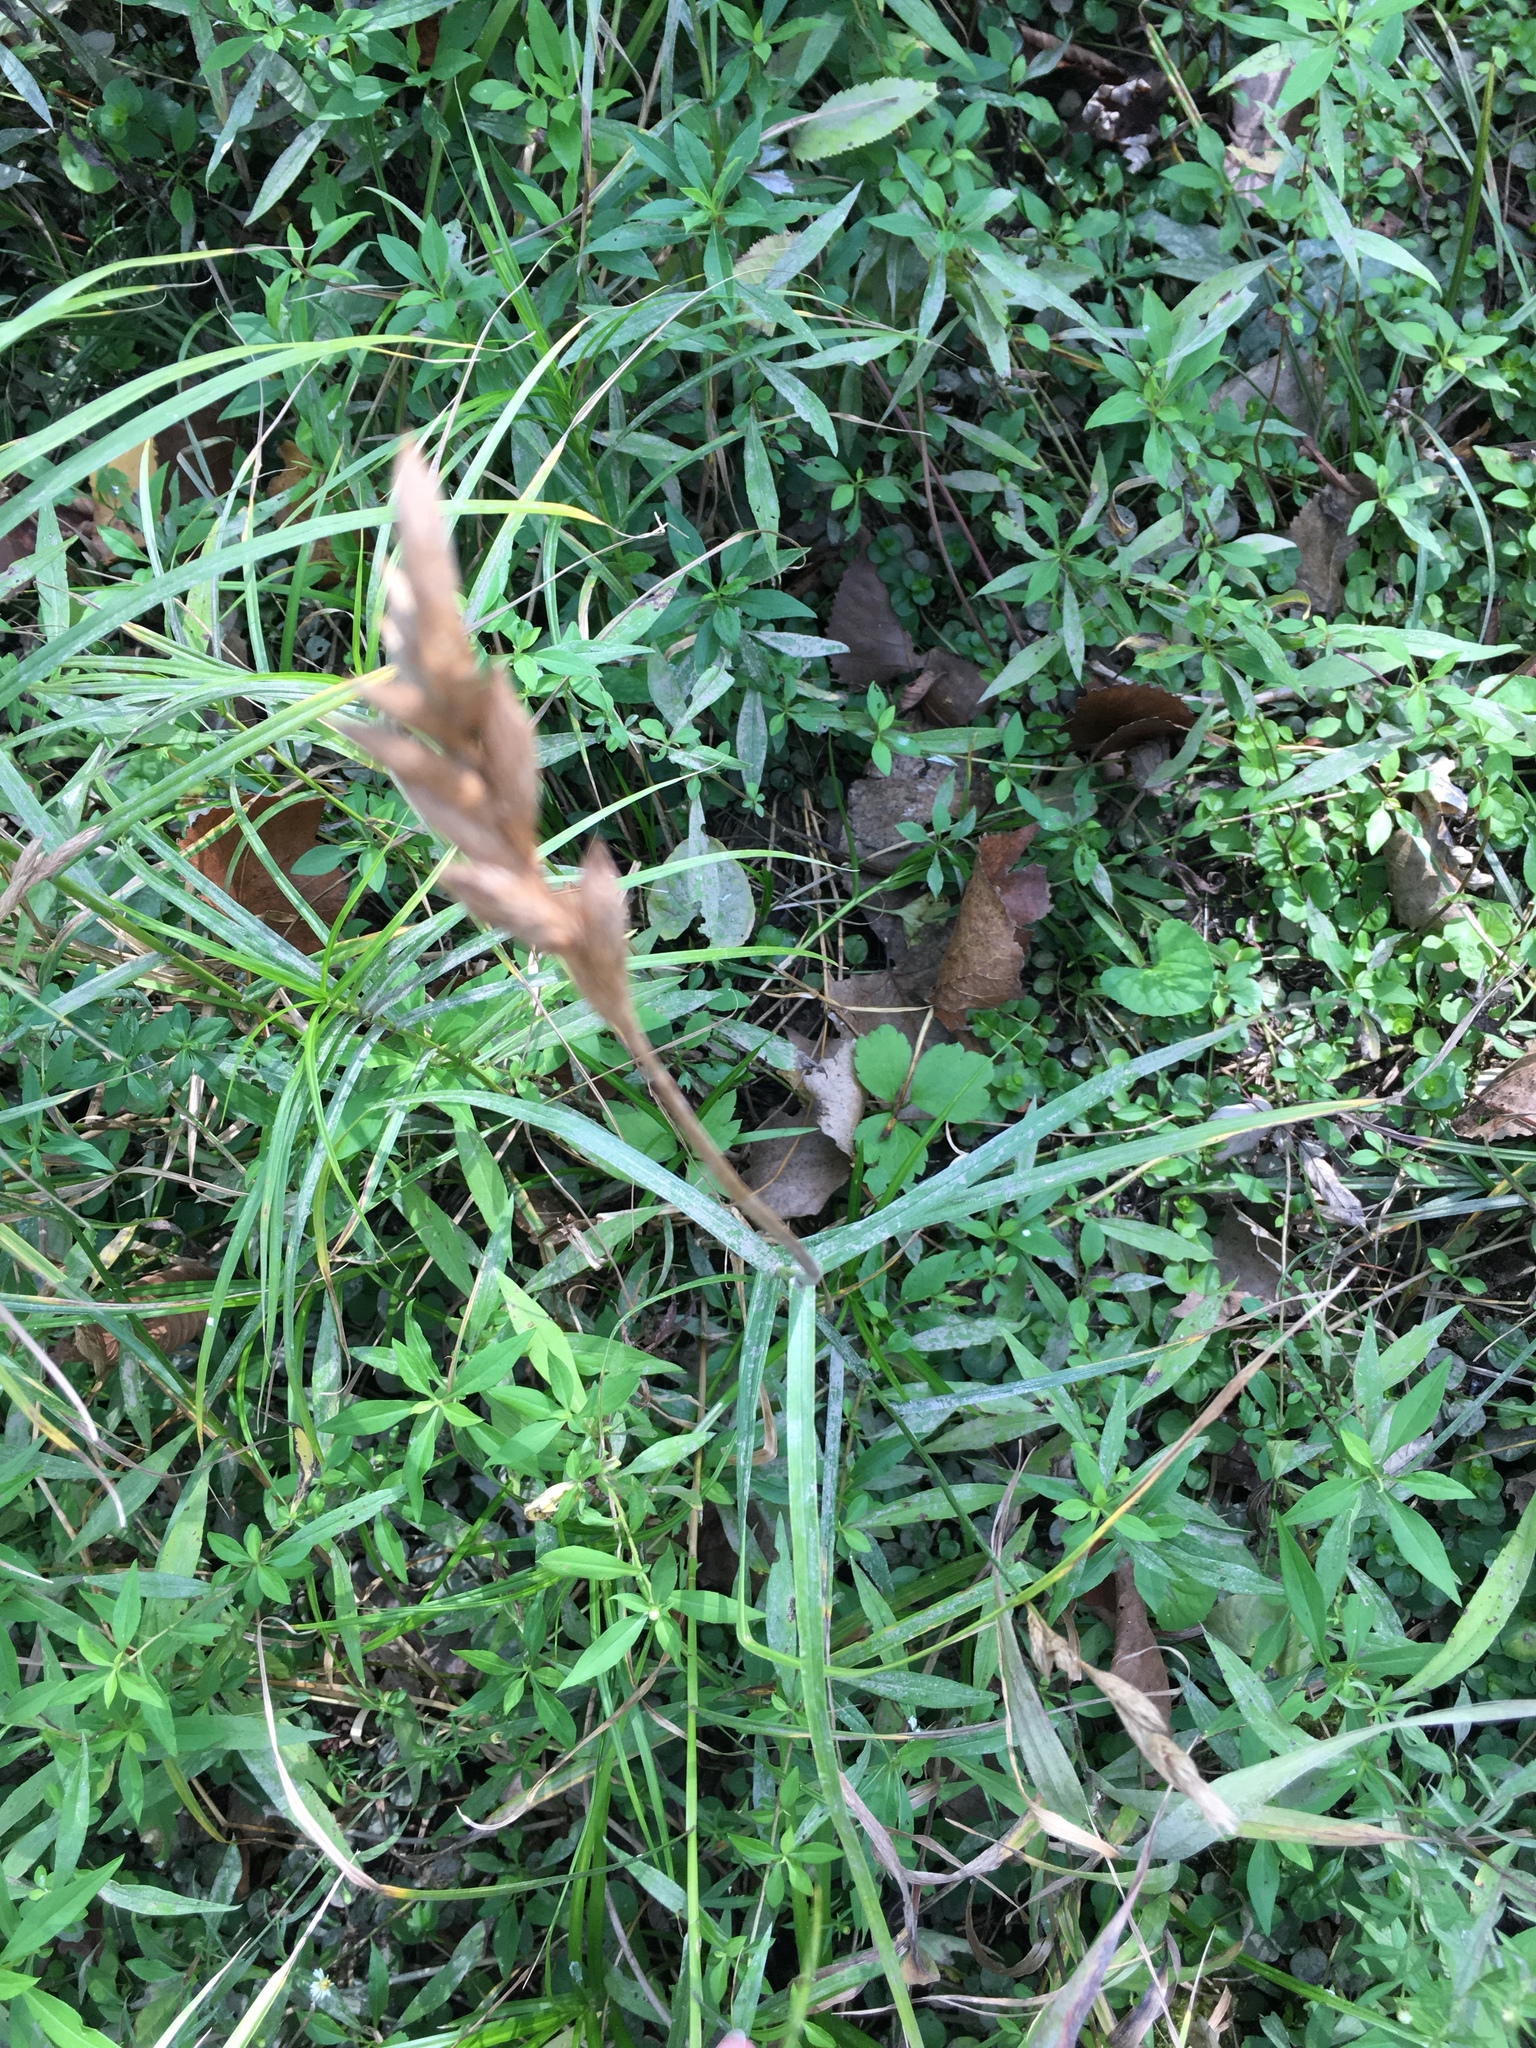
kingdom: Plantae
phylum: Tracheophyta
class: Liliopsida
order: Poales
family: Cyperaceae
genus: Carex
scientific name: Carex muskingumensis
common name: Muskingum sedge
